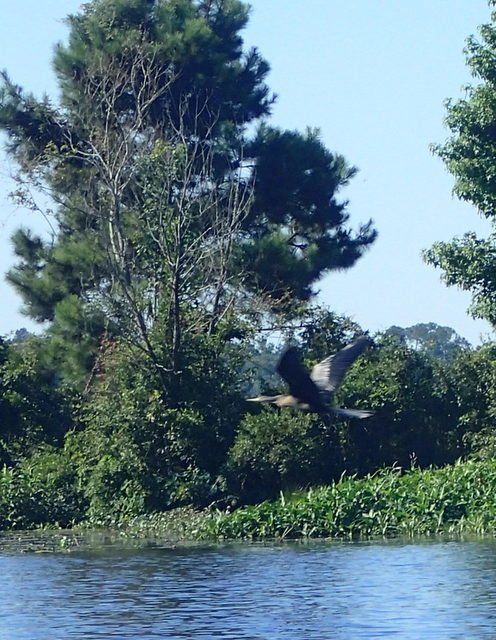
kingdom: Animalia
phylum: Chordata
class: Aves
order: Suliformes
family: Anhingidae
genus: Anhinga
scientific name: Anhinga anhinga
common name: Anhinga
